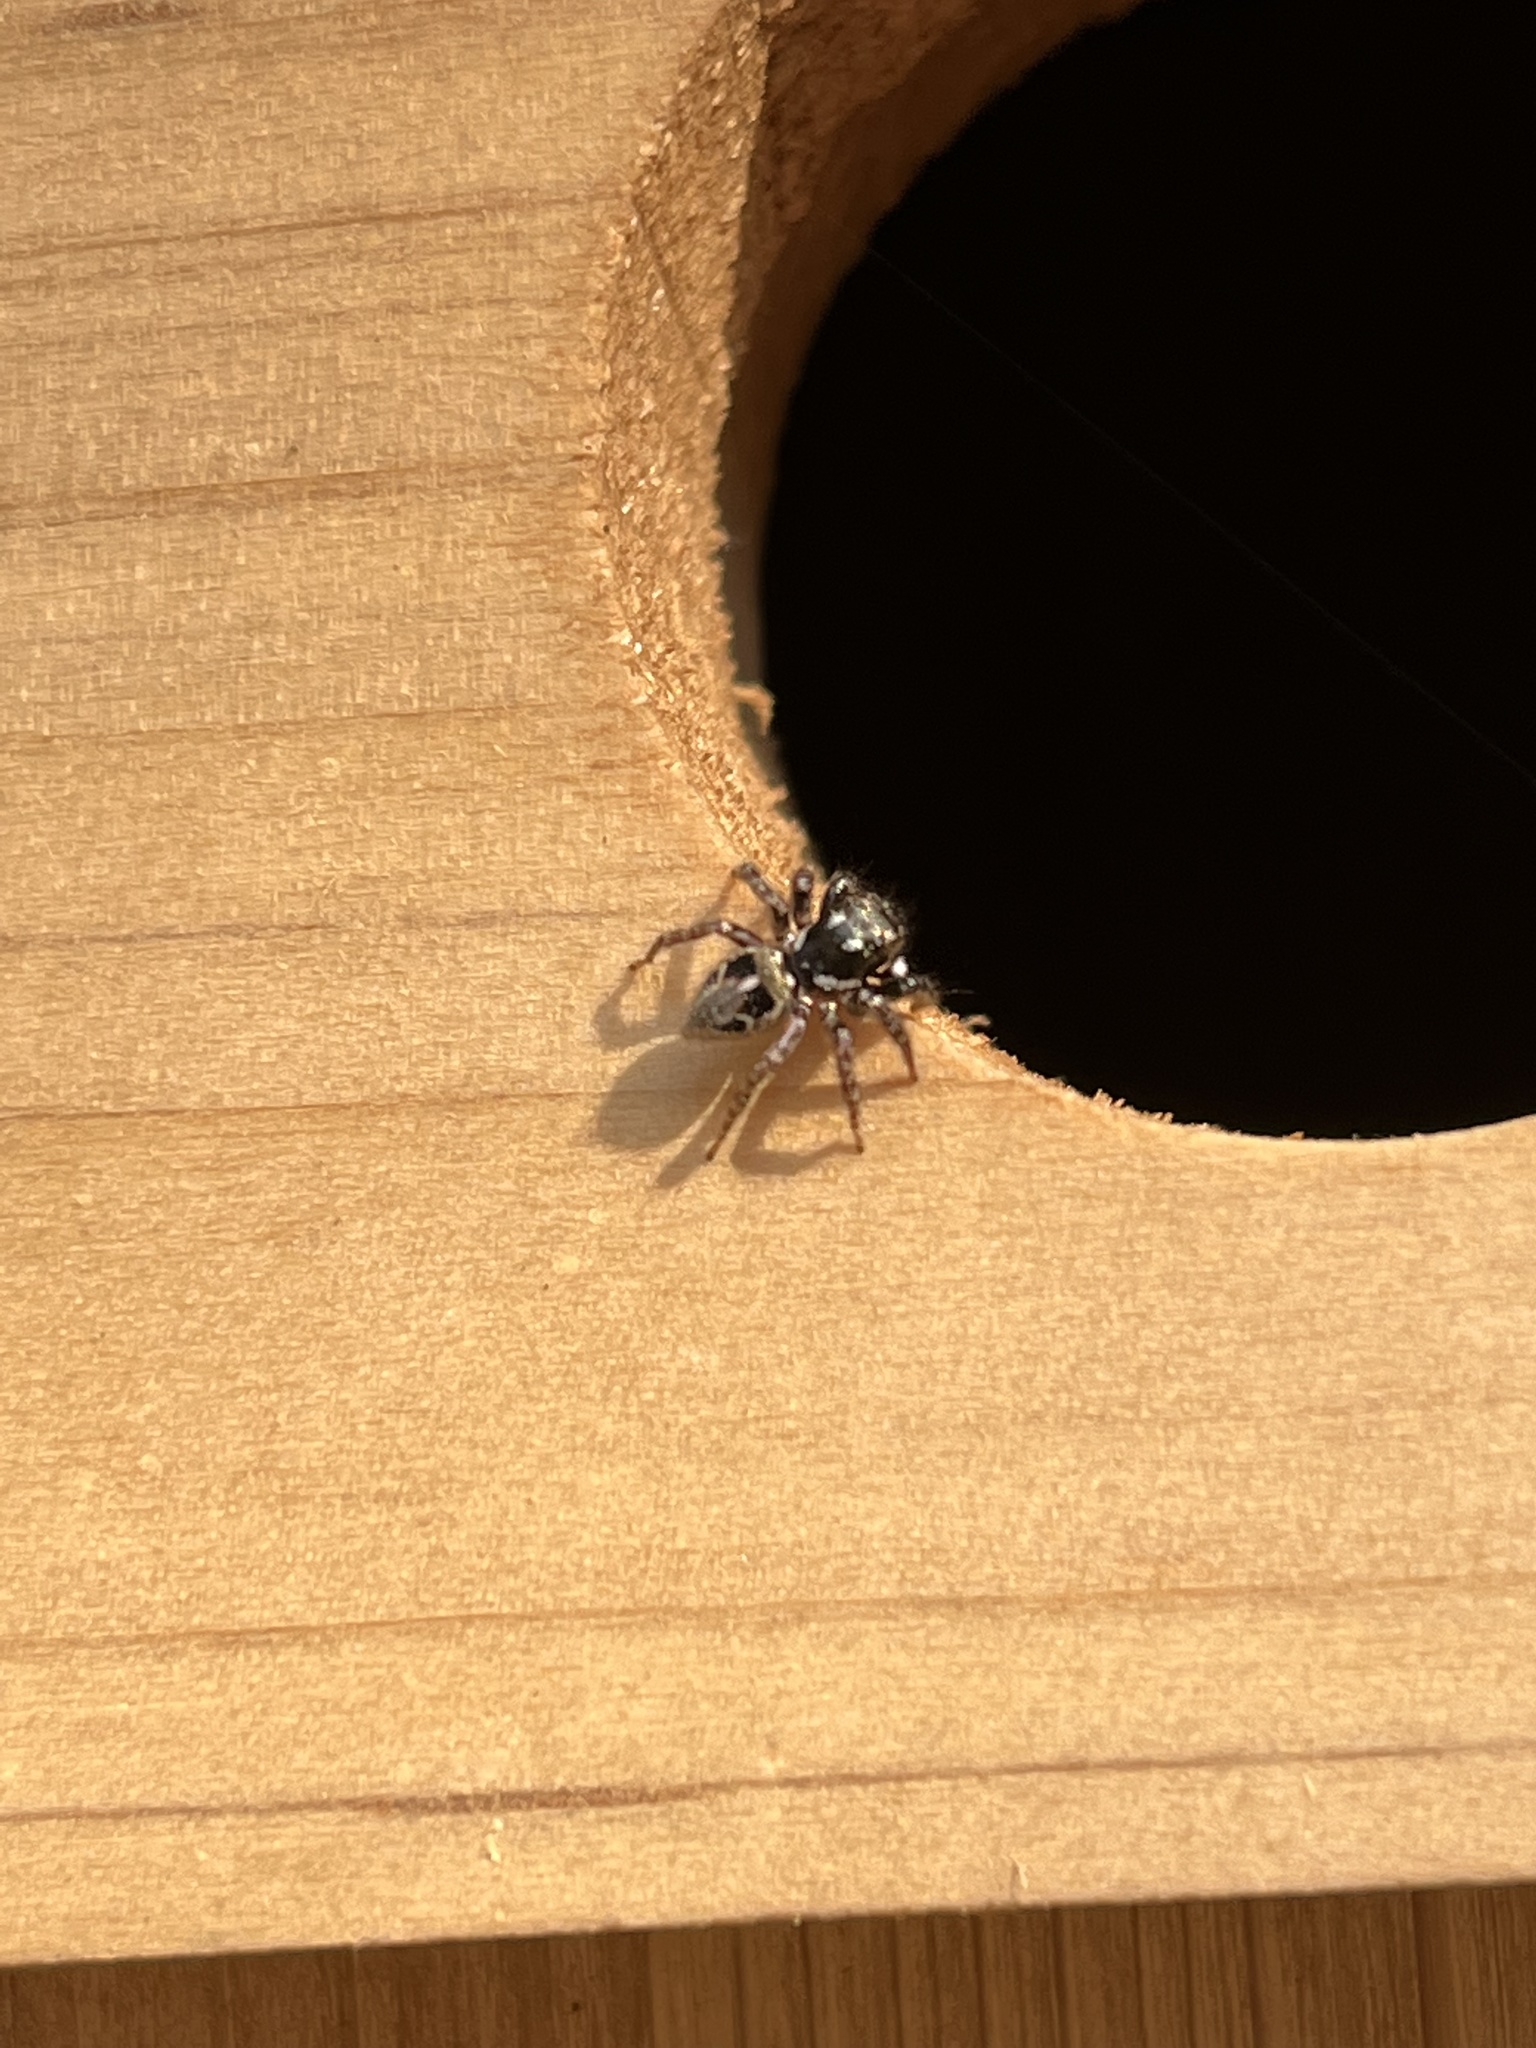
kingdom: Animalia
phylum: Arthropoda
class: Arachnida
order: Araneae
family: Salticidae
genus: Anasaitis
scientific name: Anasaitis canosa
